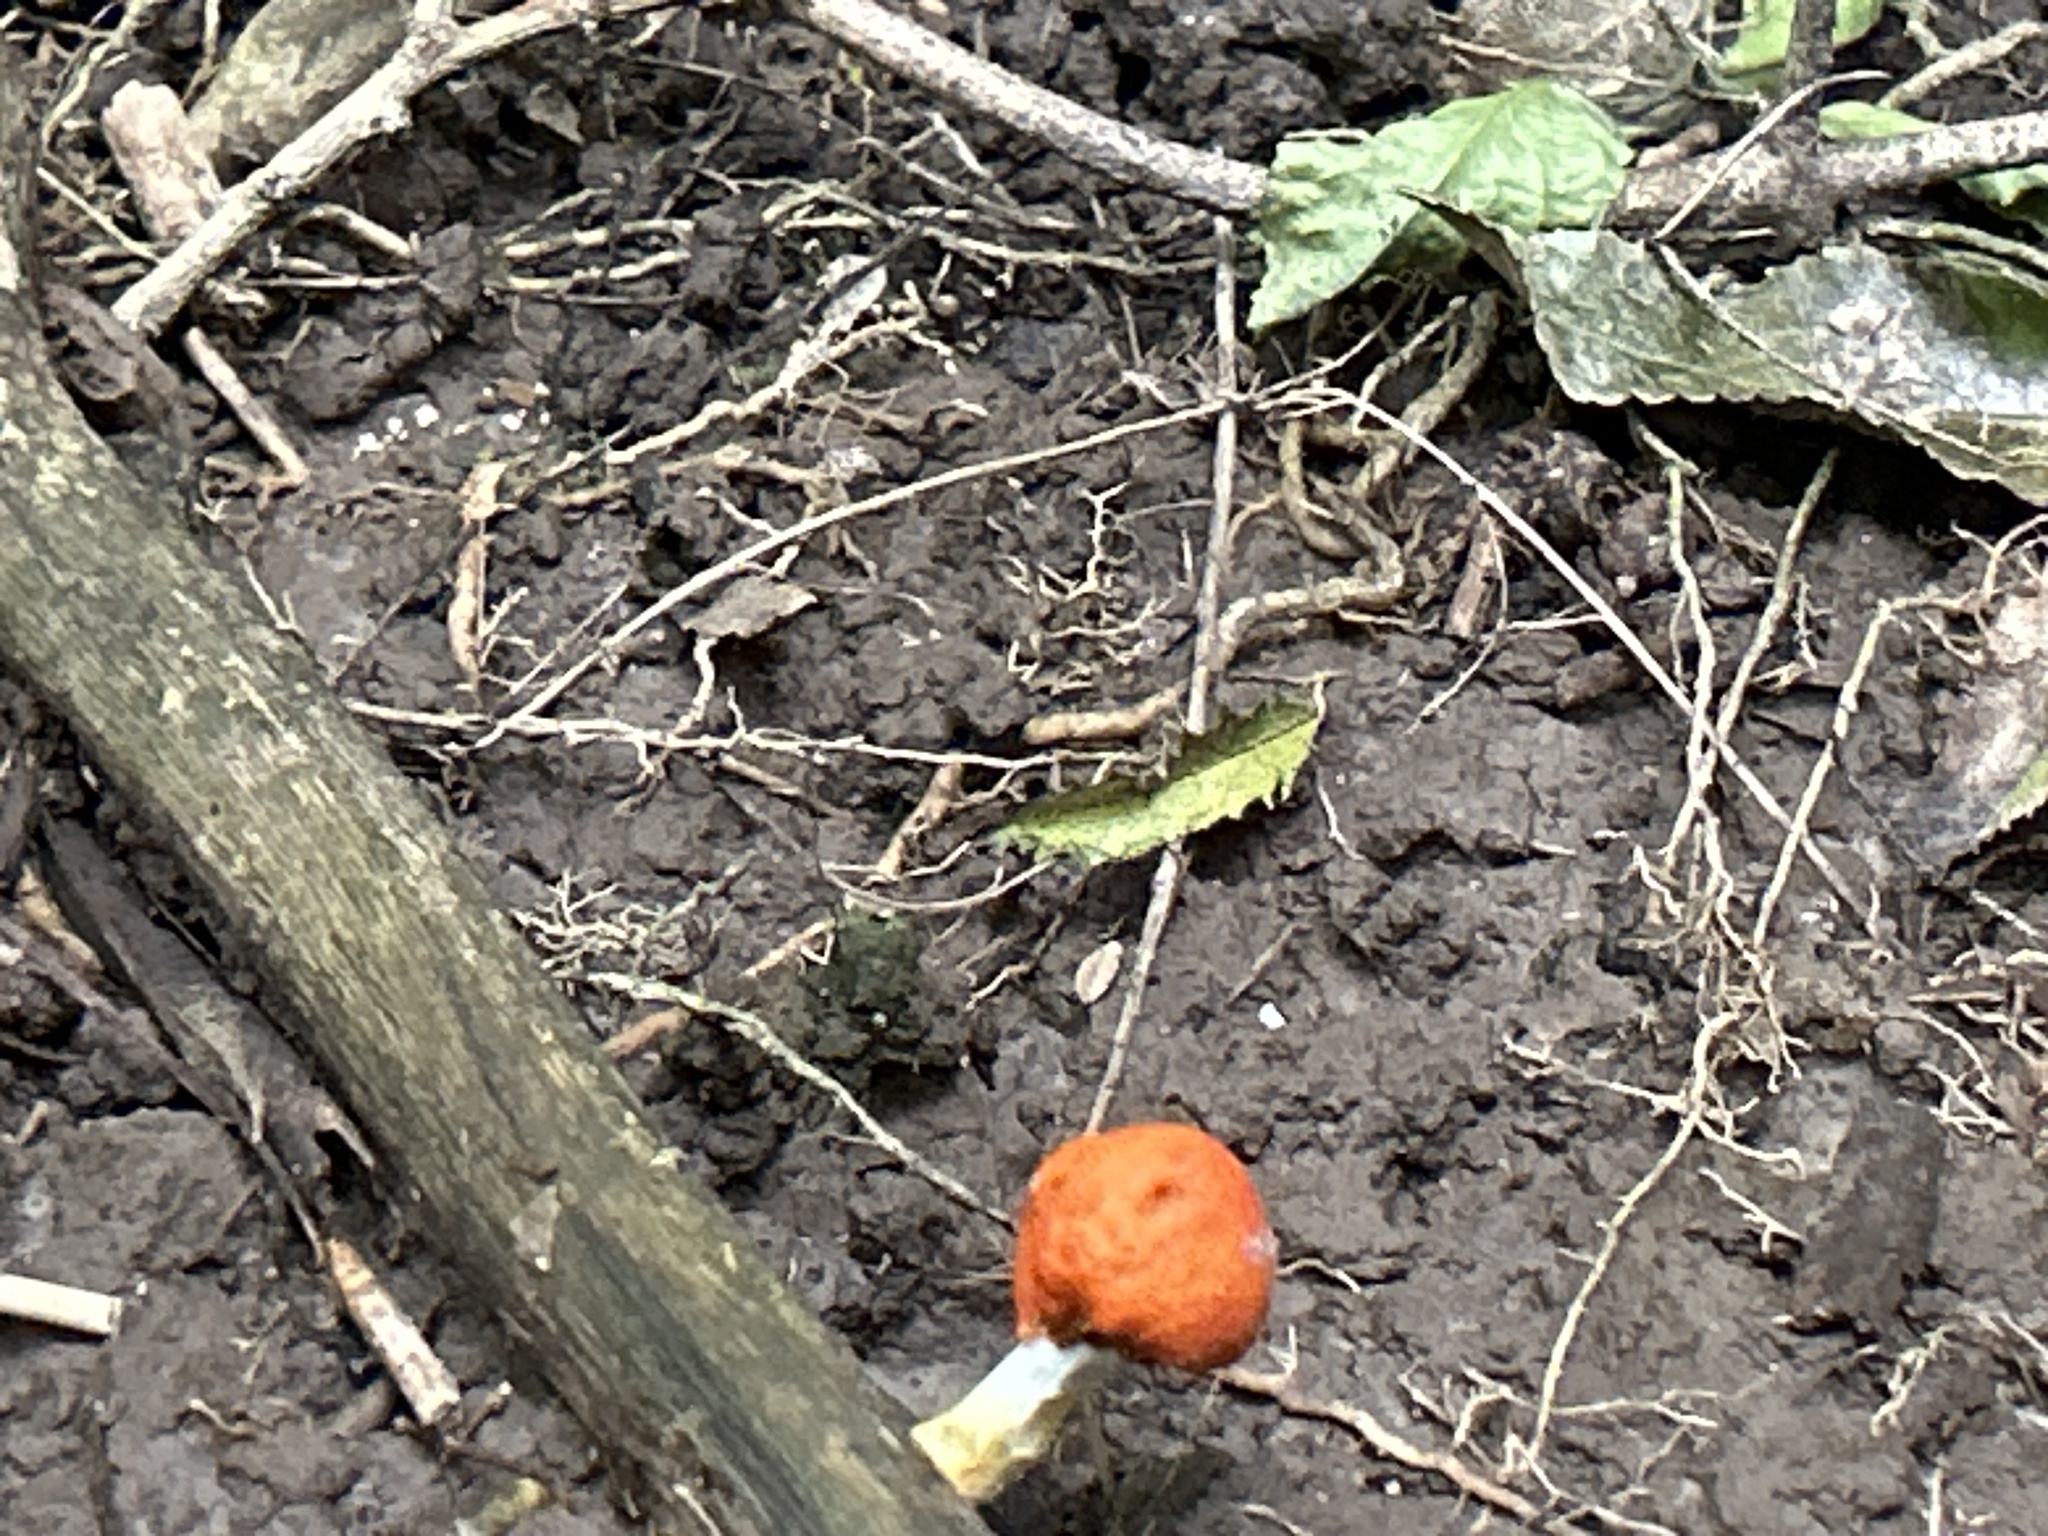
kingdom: Fungi
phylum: Basidiomycota
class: Agaricomycetes
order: Agaricales
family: Strophariaceae
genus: Leratiomyces
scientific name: Leratiomyces erythrocephalus
